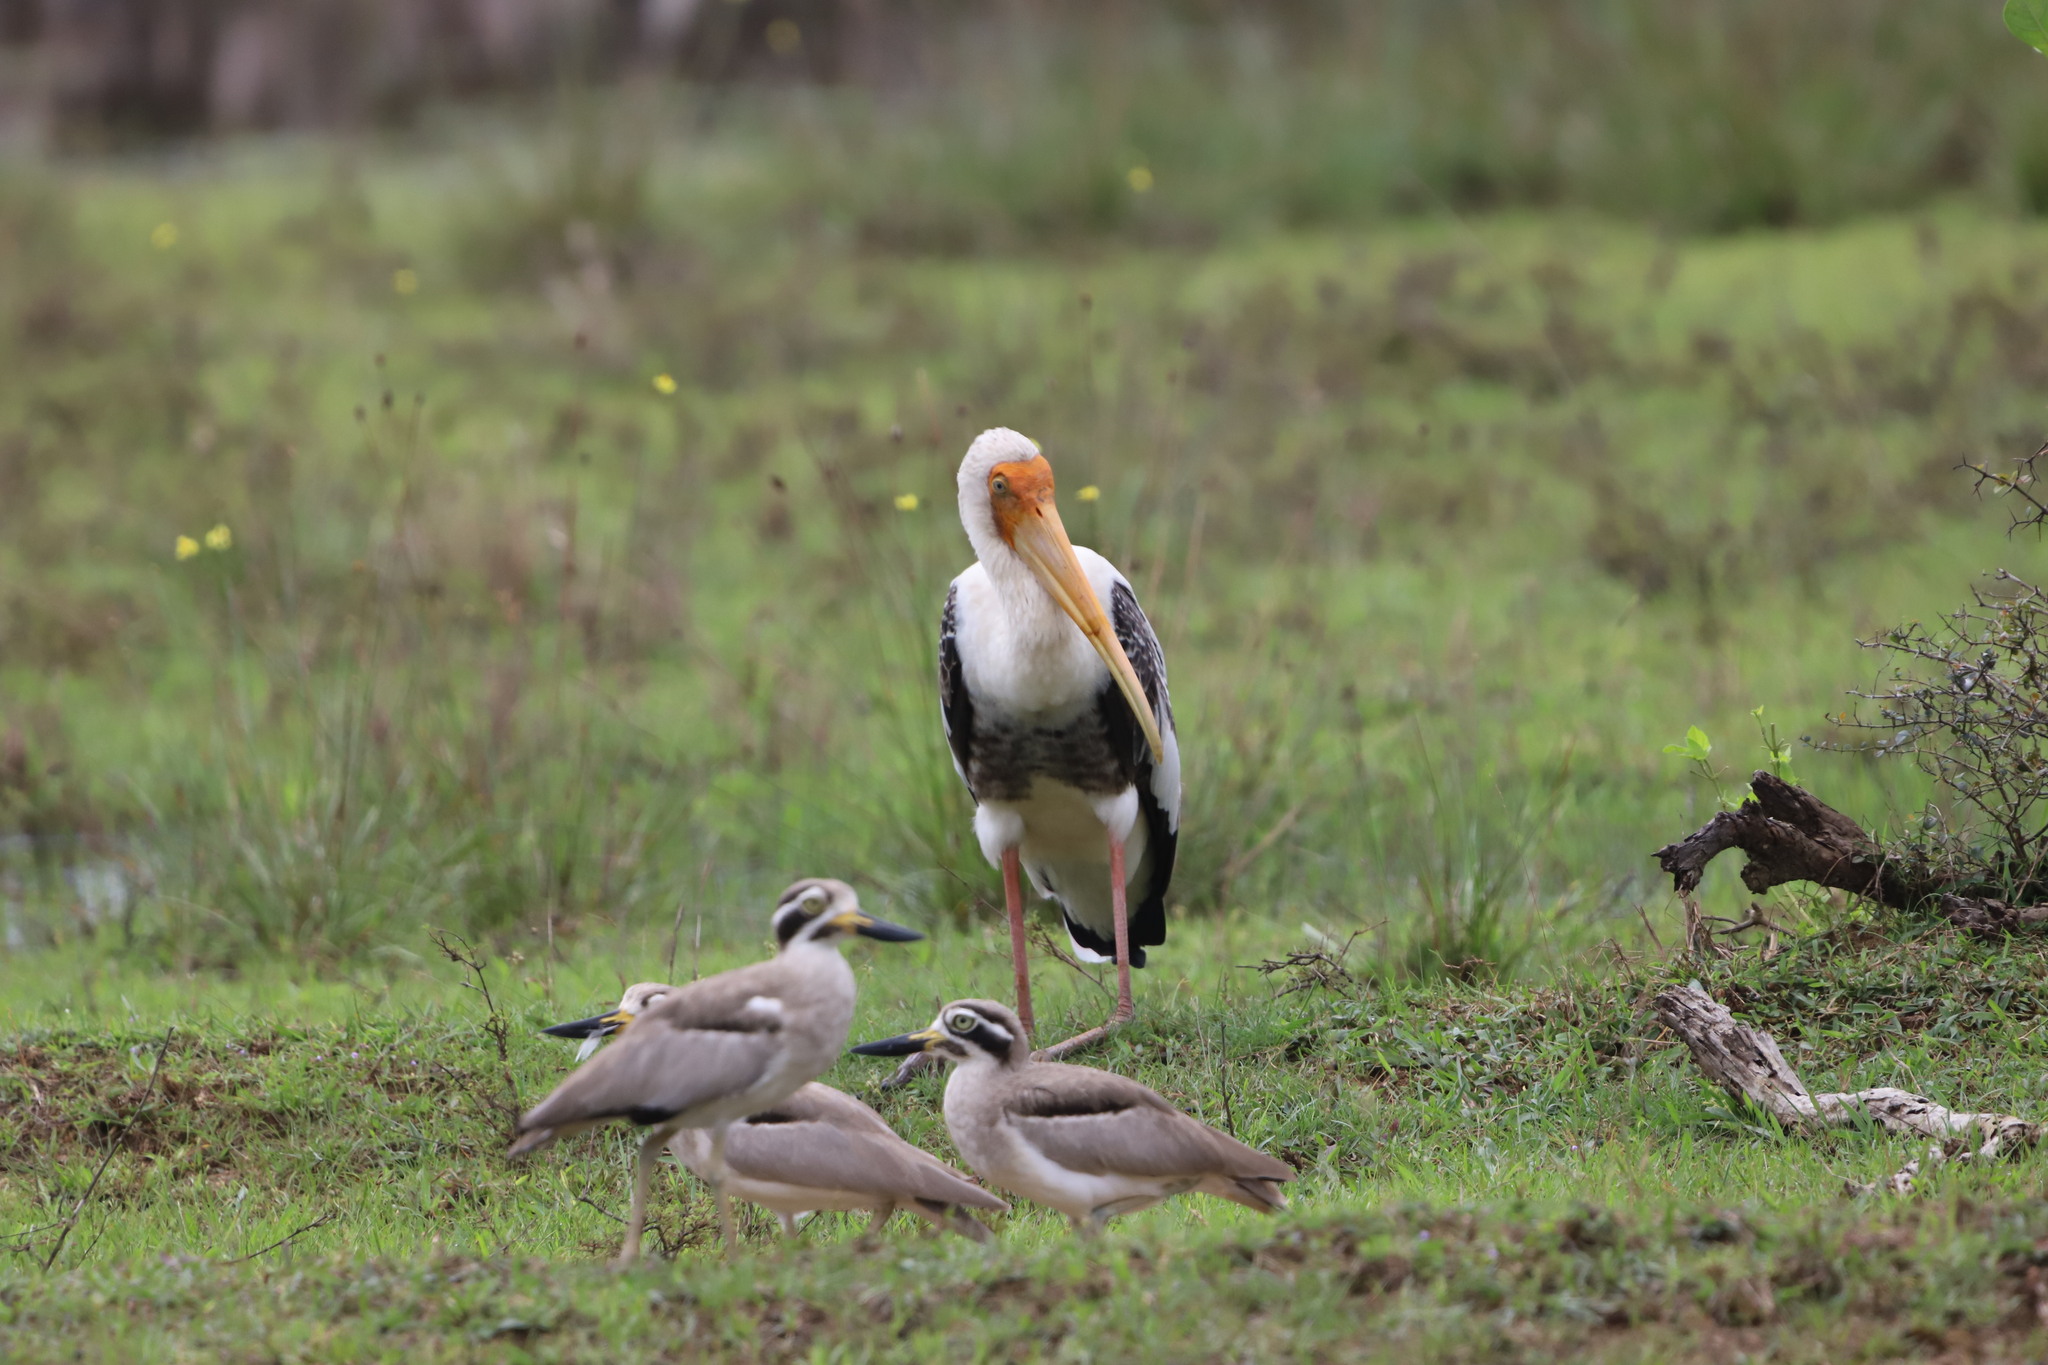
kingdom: Animalia
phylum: Chordata
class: Aves
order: Ciconiiformes
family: Ciconiidae
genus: Mycteria
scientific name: Mycteria leucocephala
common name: Painted stork
